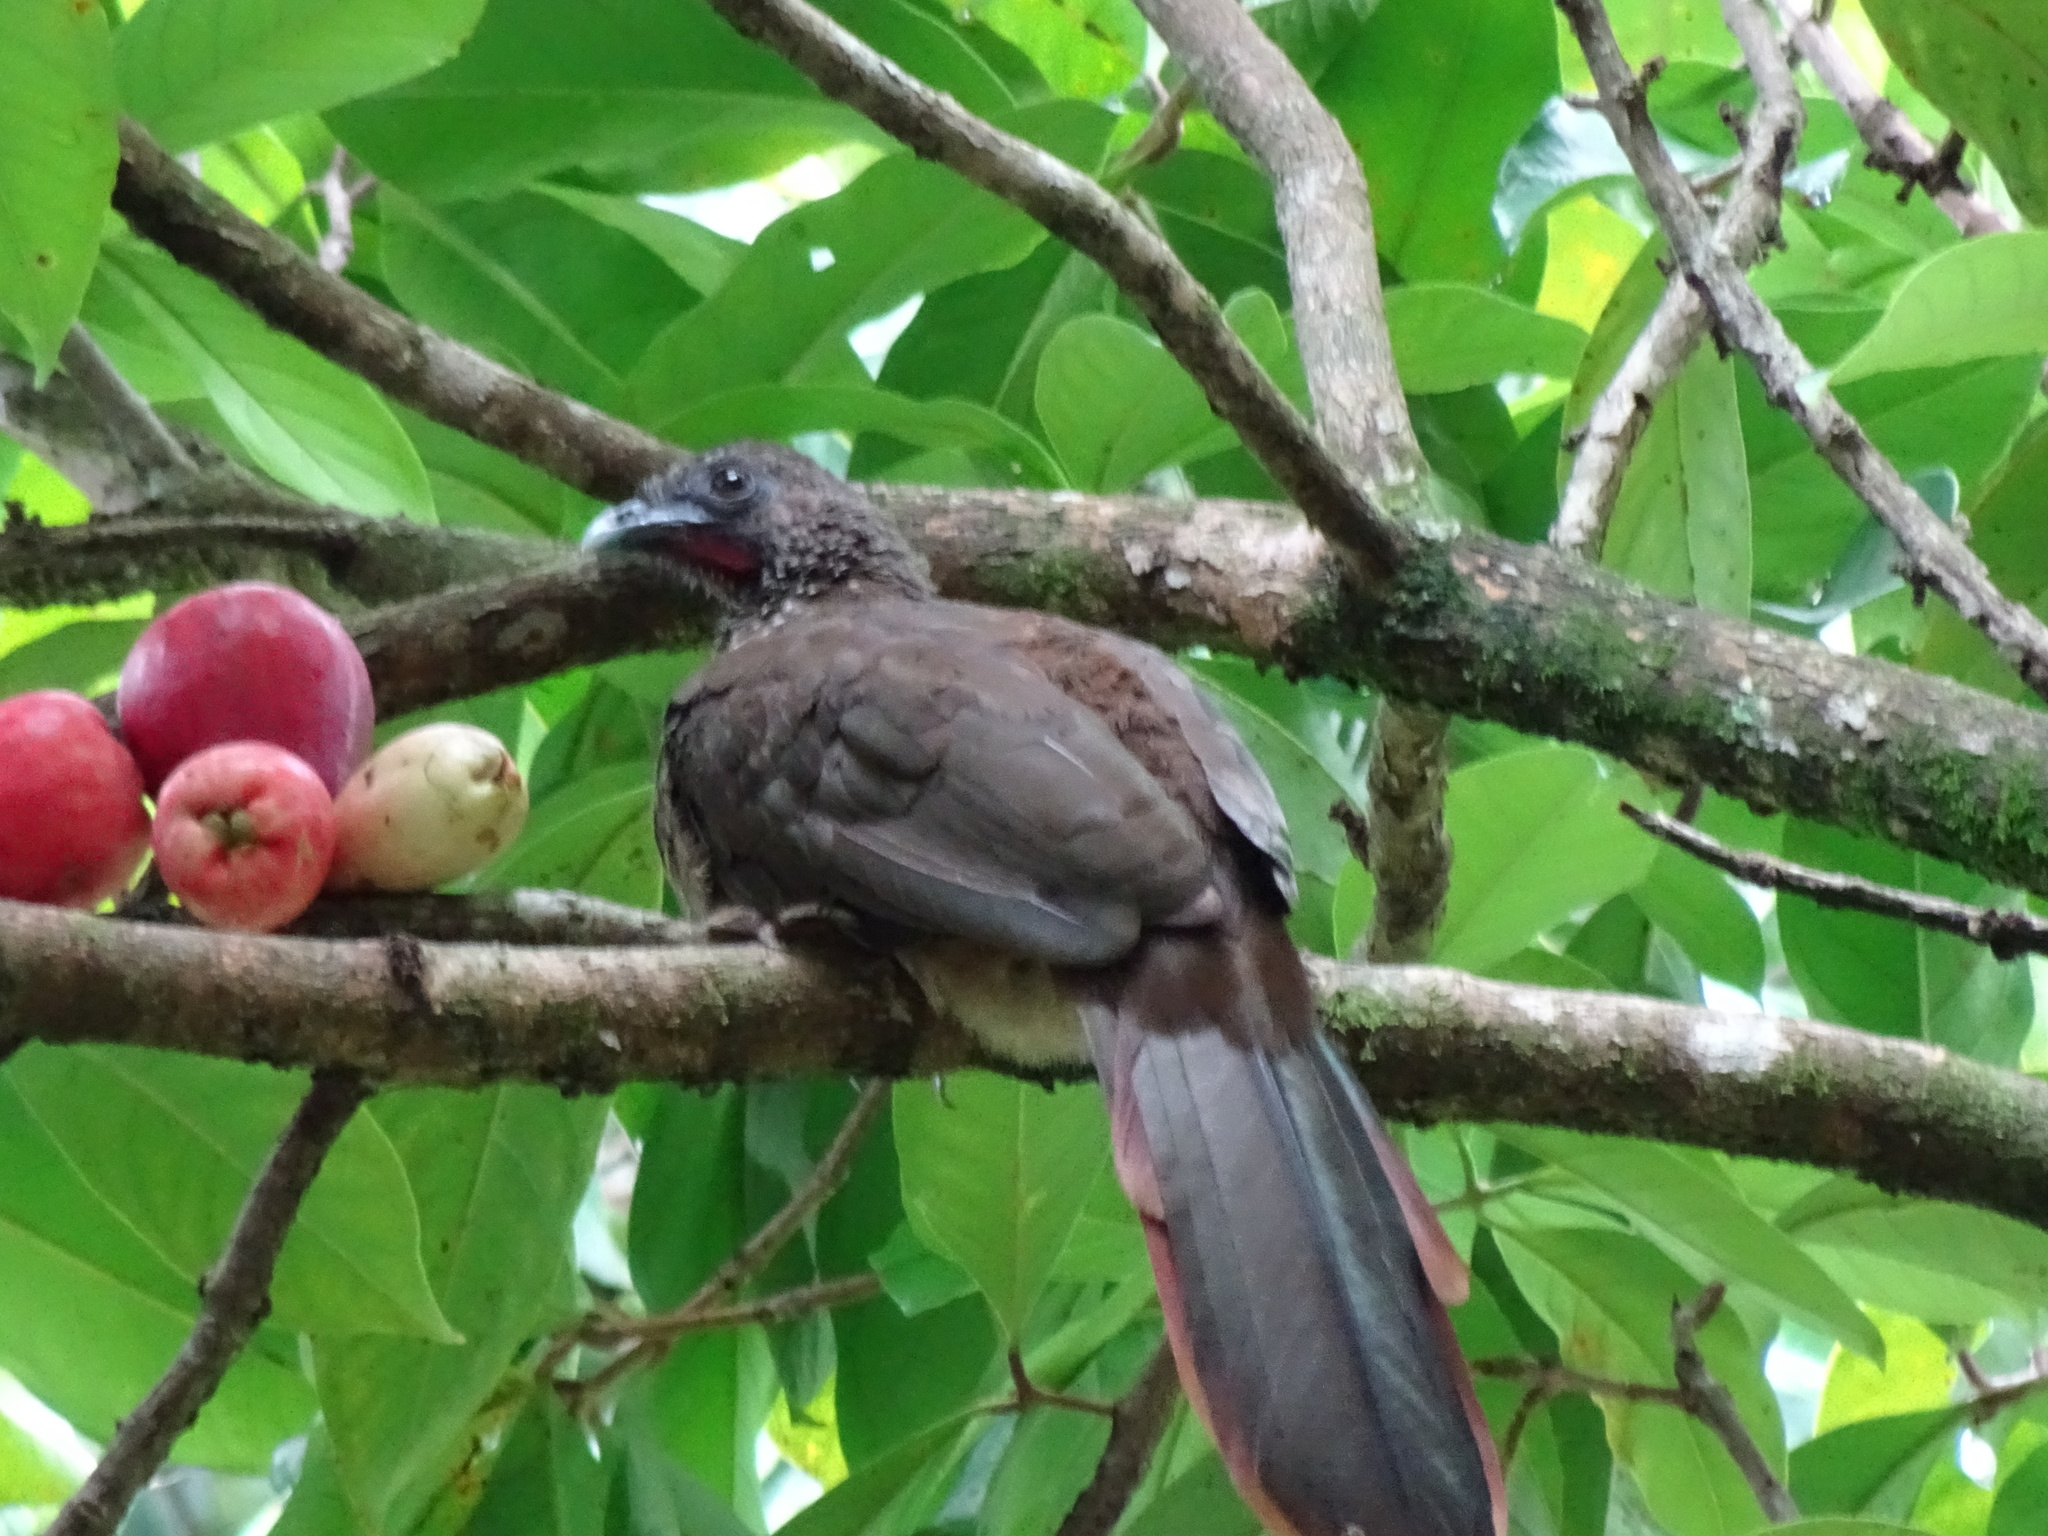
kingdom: Animalia
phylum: Chordata
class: Aves
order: Galliformes
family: Cracidae
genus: Ortalis
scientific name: Ortalis guttata
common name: Speckled chachalaca
